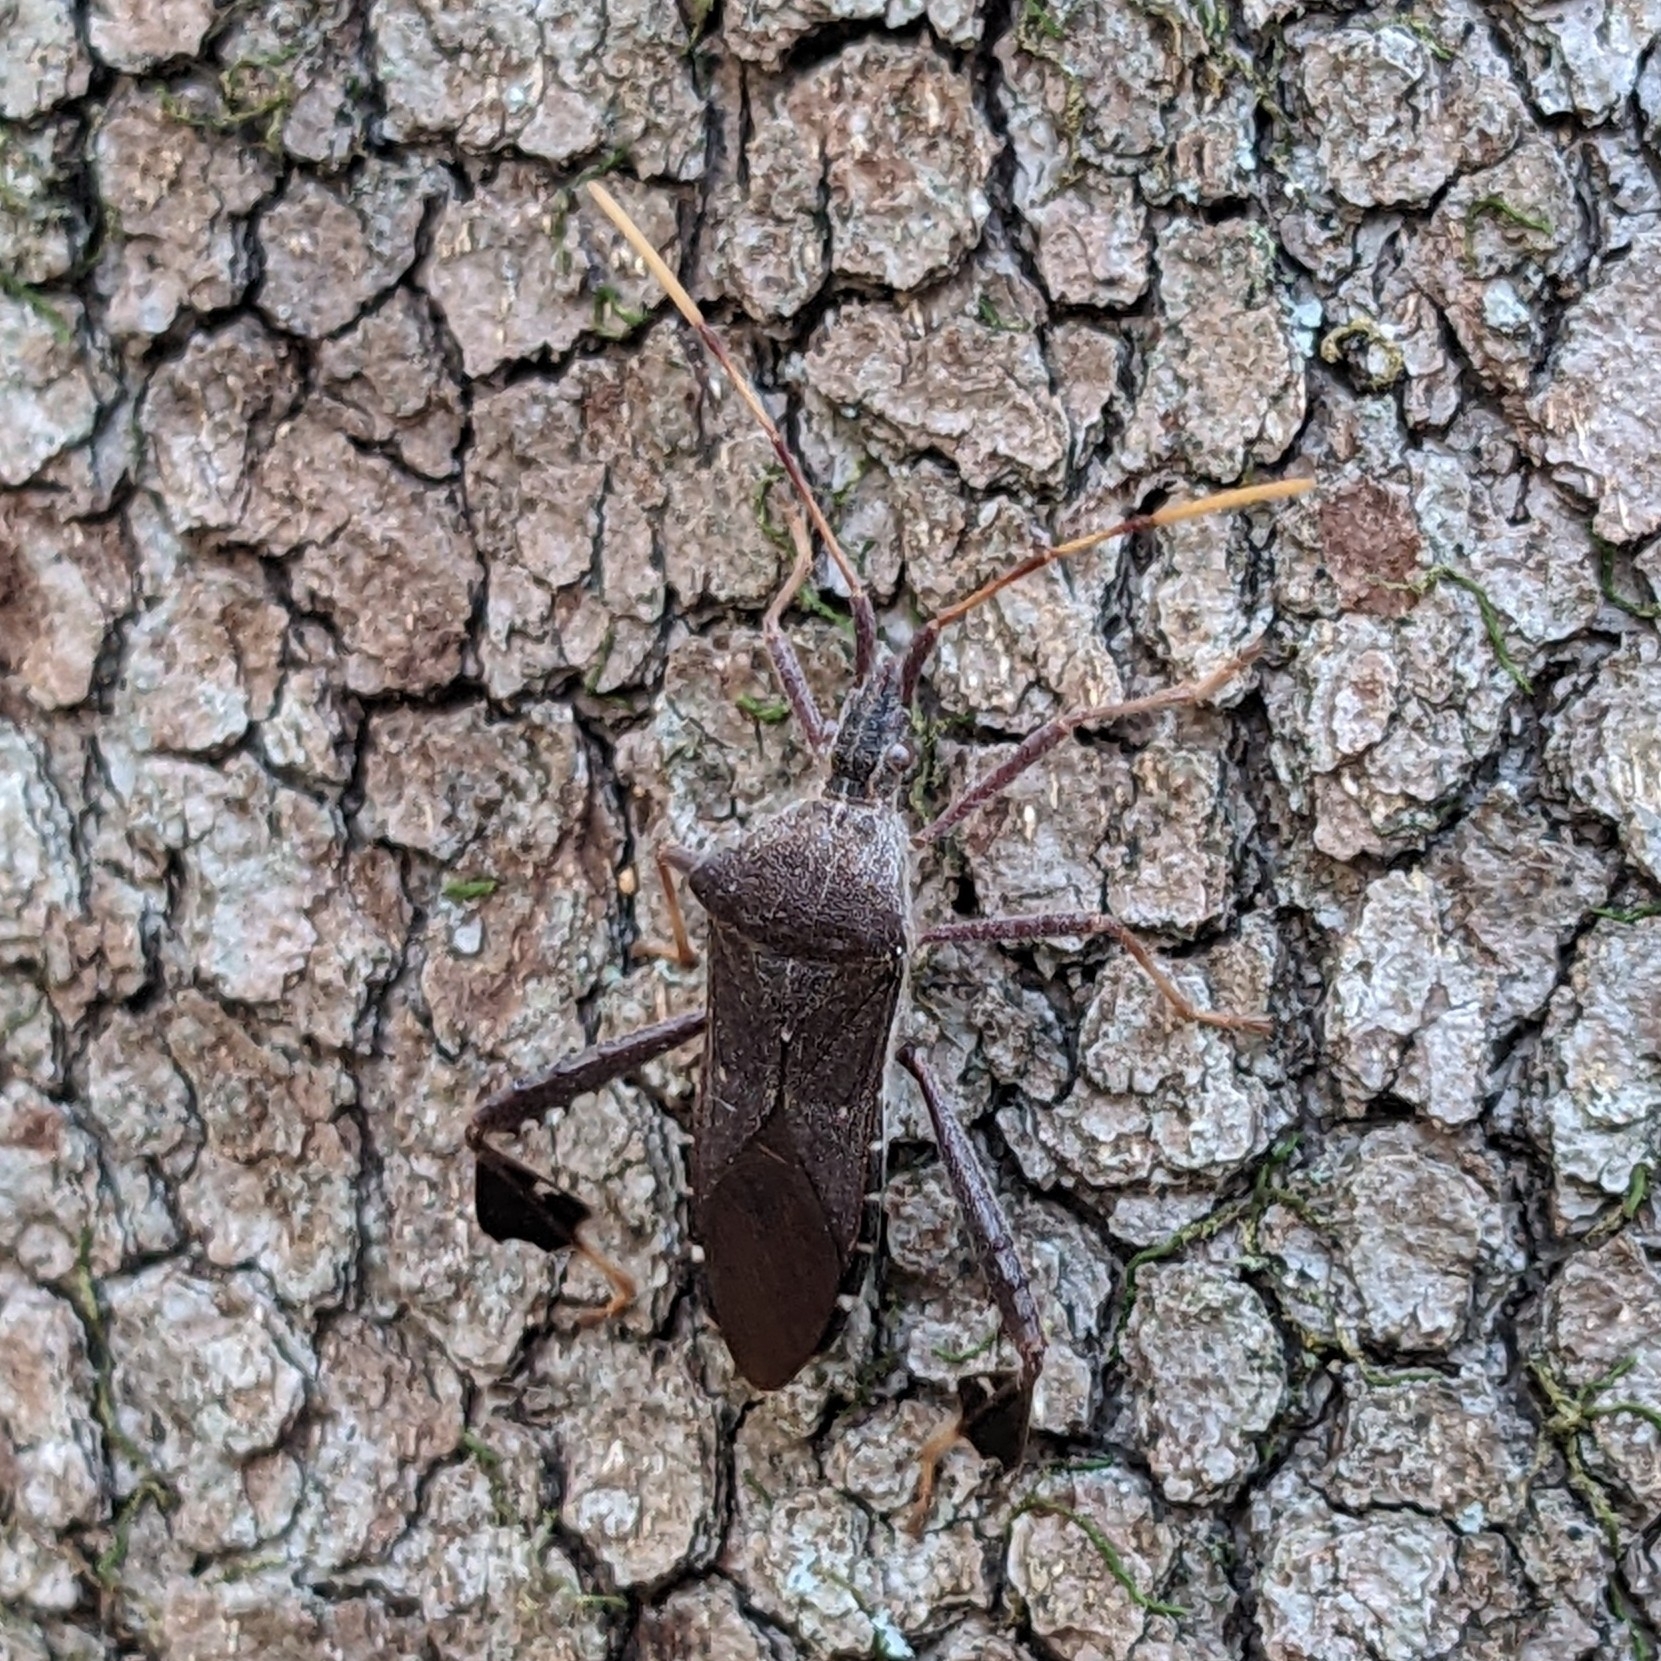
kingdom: Animalia
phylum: Arthropoda
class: Insecta
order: Hemiptera
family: Coreidae
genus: Leptoglossus
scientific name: Leptoglossus oppositus
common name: Northern leaf-footed bug
